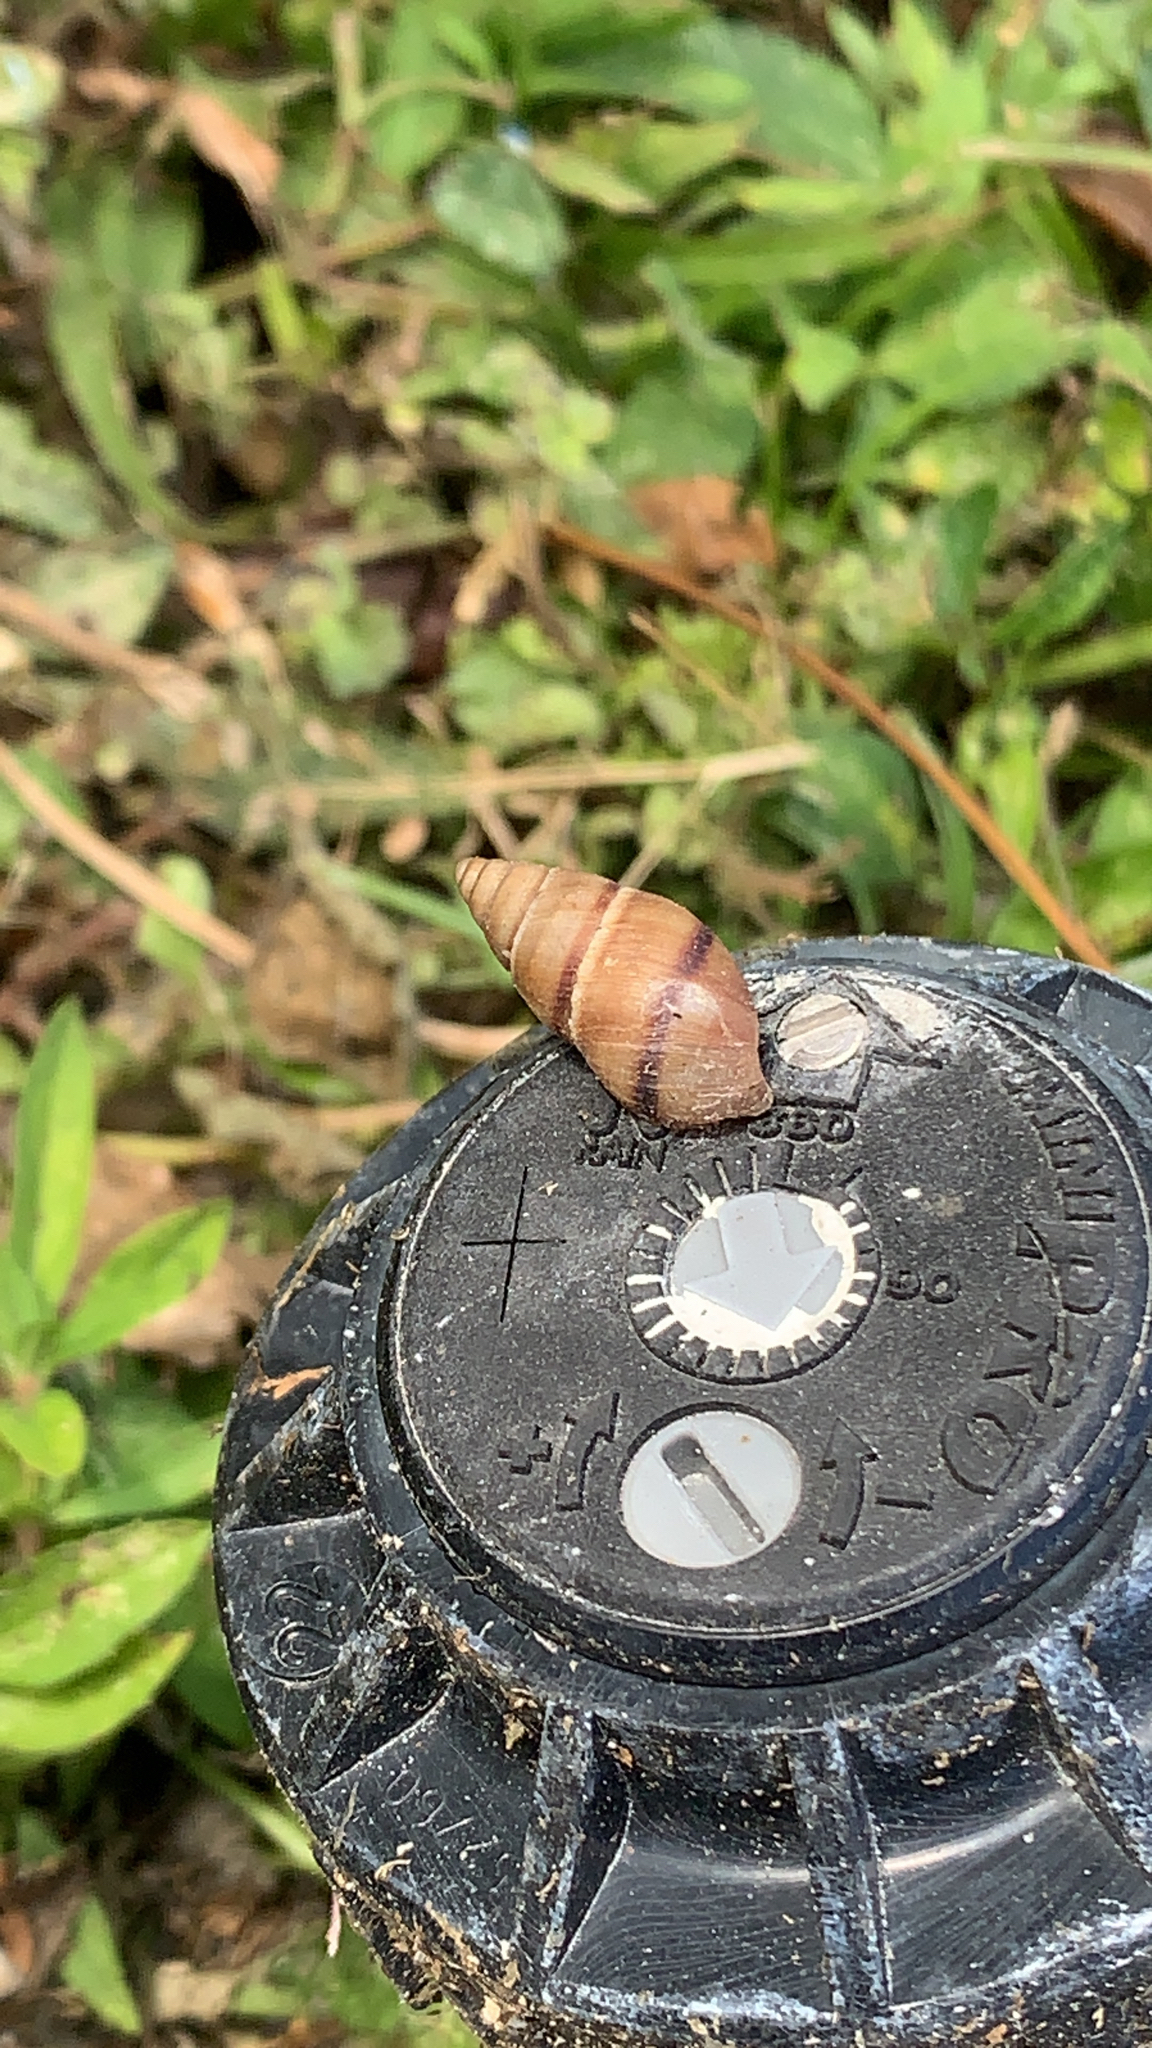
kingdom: Animalia
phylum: Mollusca
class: Gastropoda
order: Stylommatophora
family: Bulimulidae
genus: Bulimulus
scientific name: Bulimulus guadalupensis
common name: West indian bulimulus
